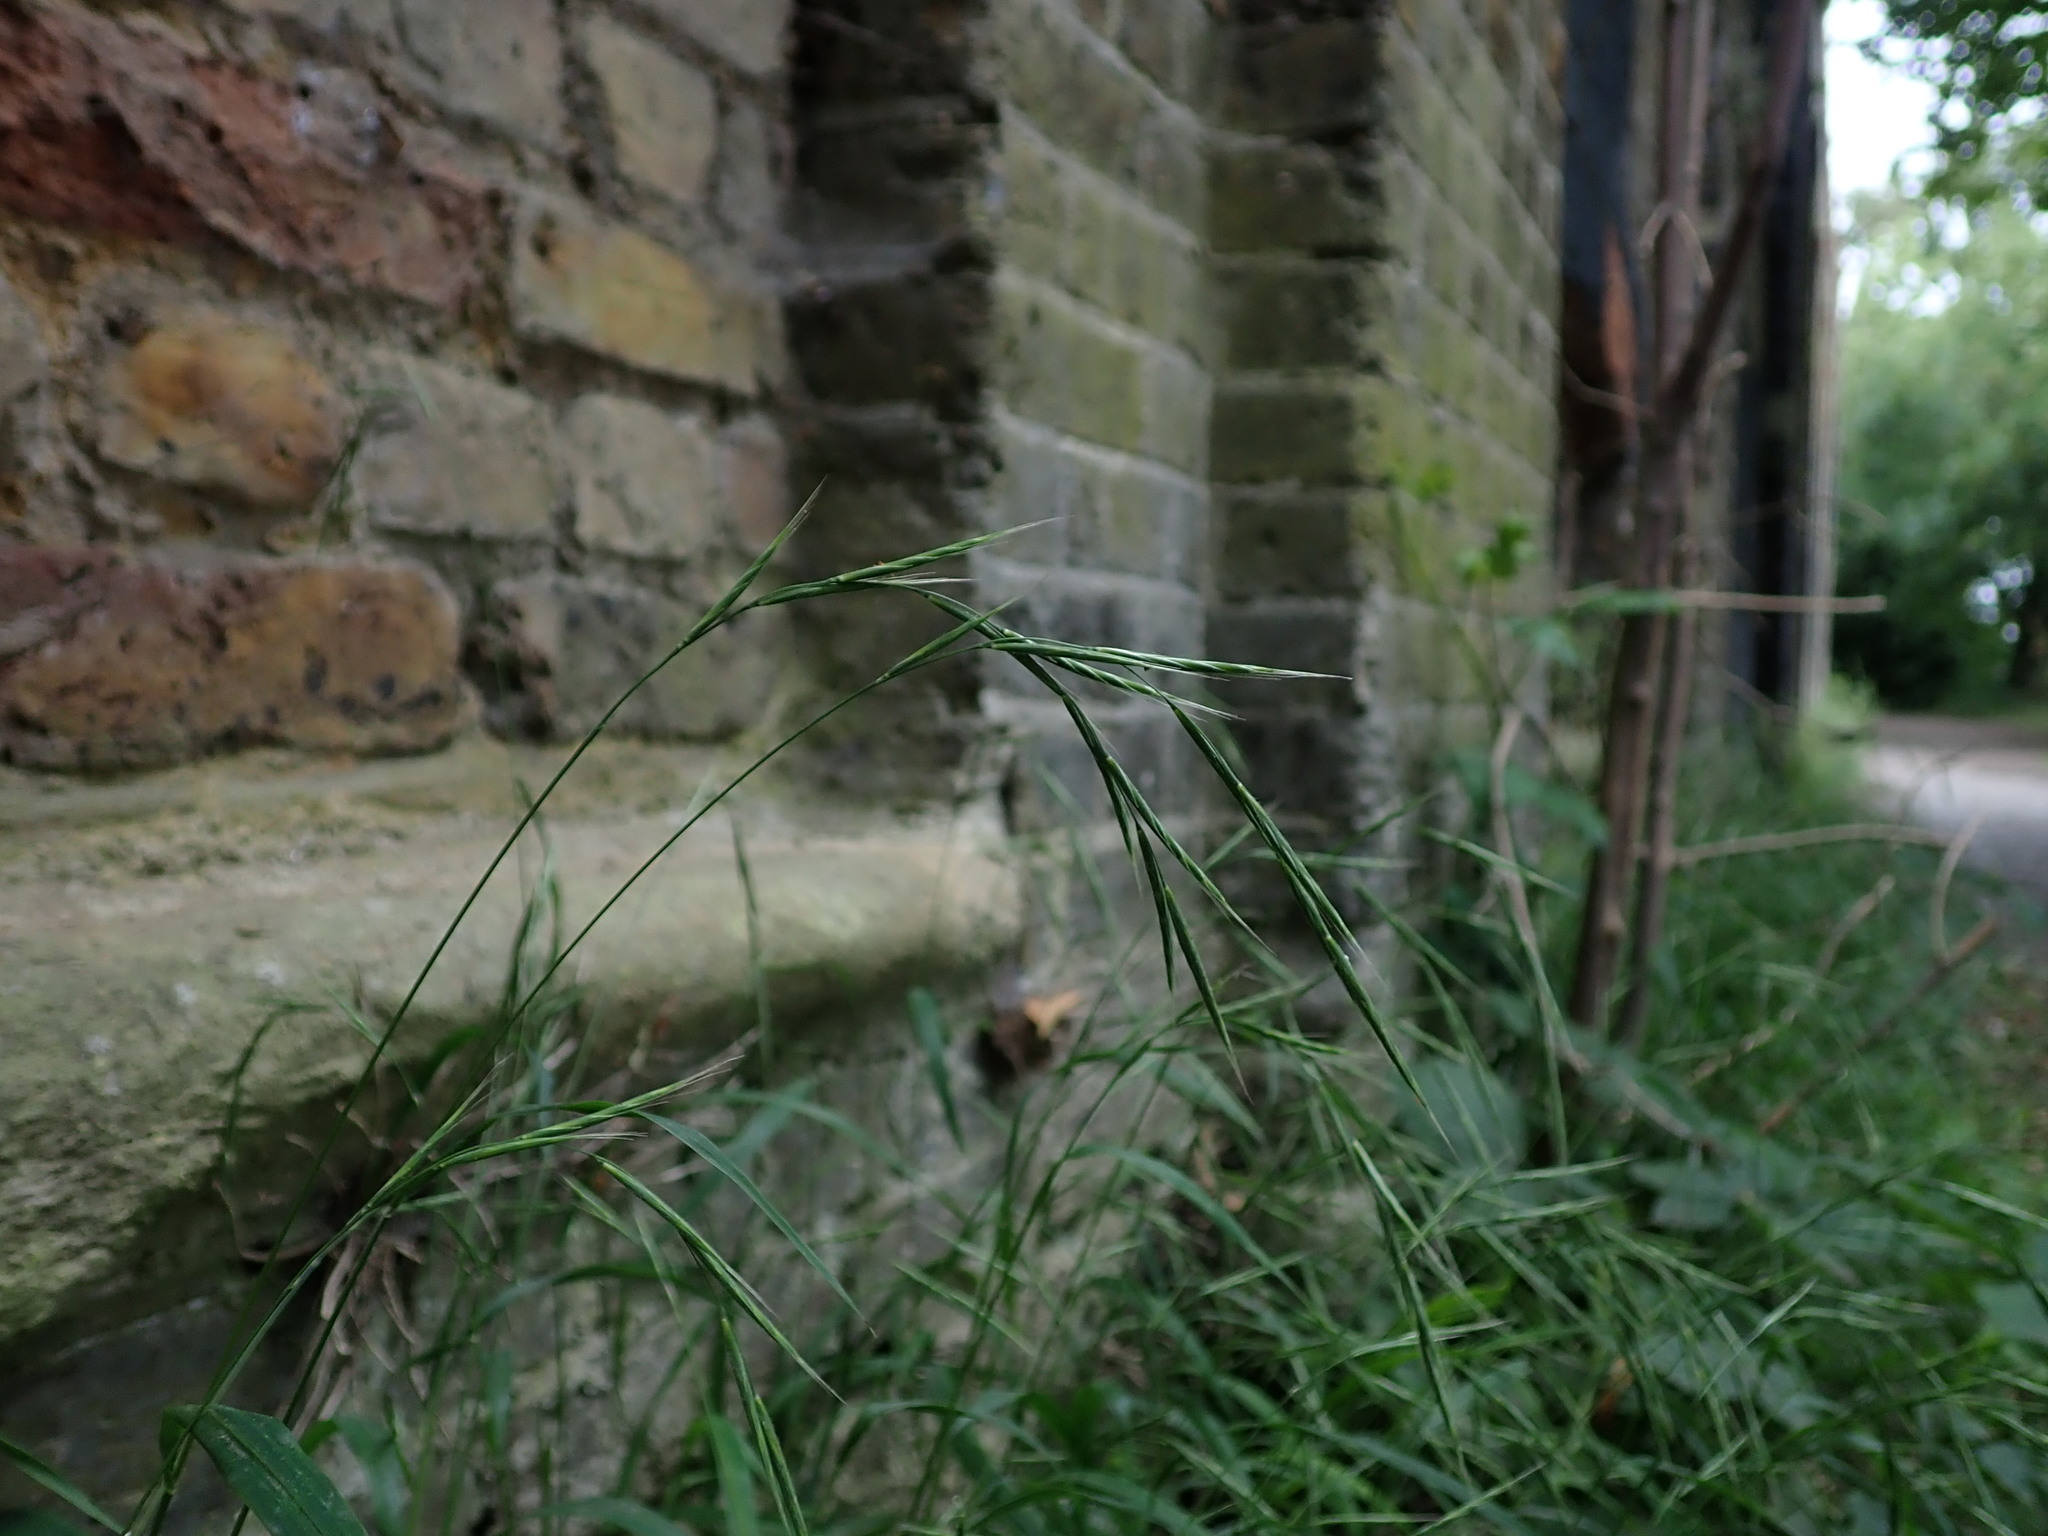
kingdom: Plantae
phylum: Tracheophyta
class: Liliopsida
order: Poales
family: Poaceae
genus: Brachypodium
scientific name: Brachypodium sylvaticum
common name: False-brome
